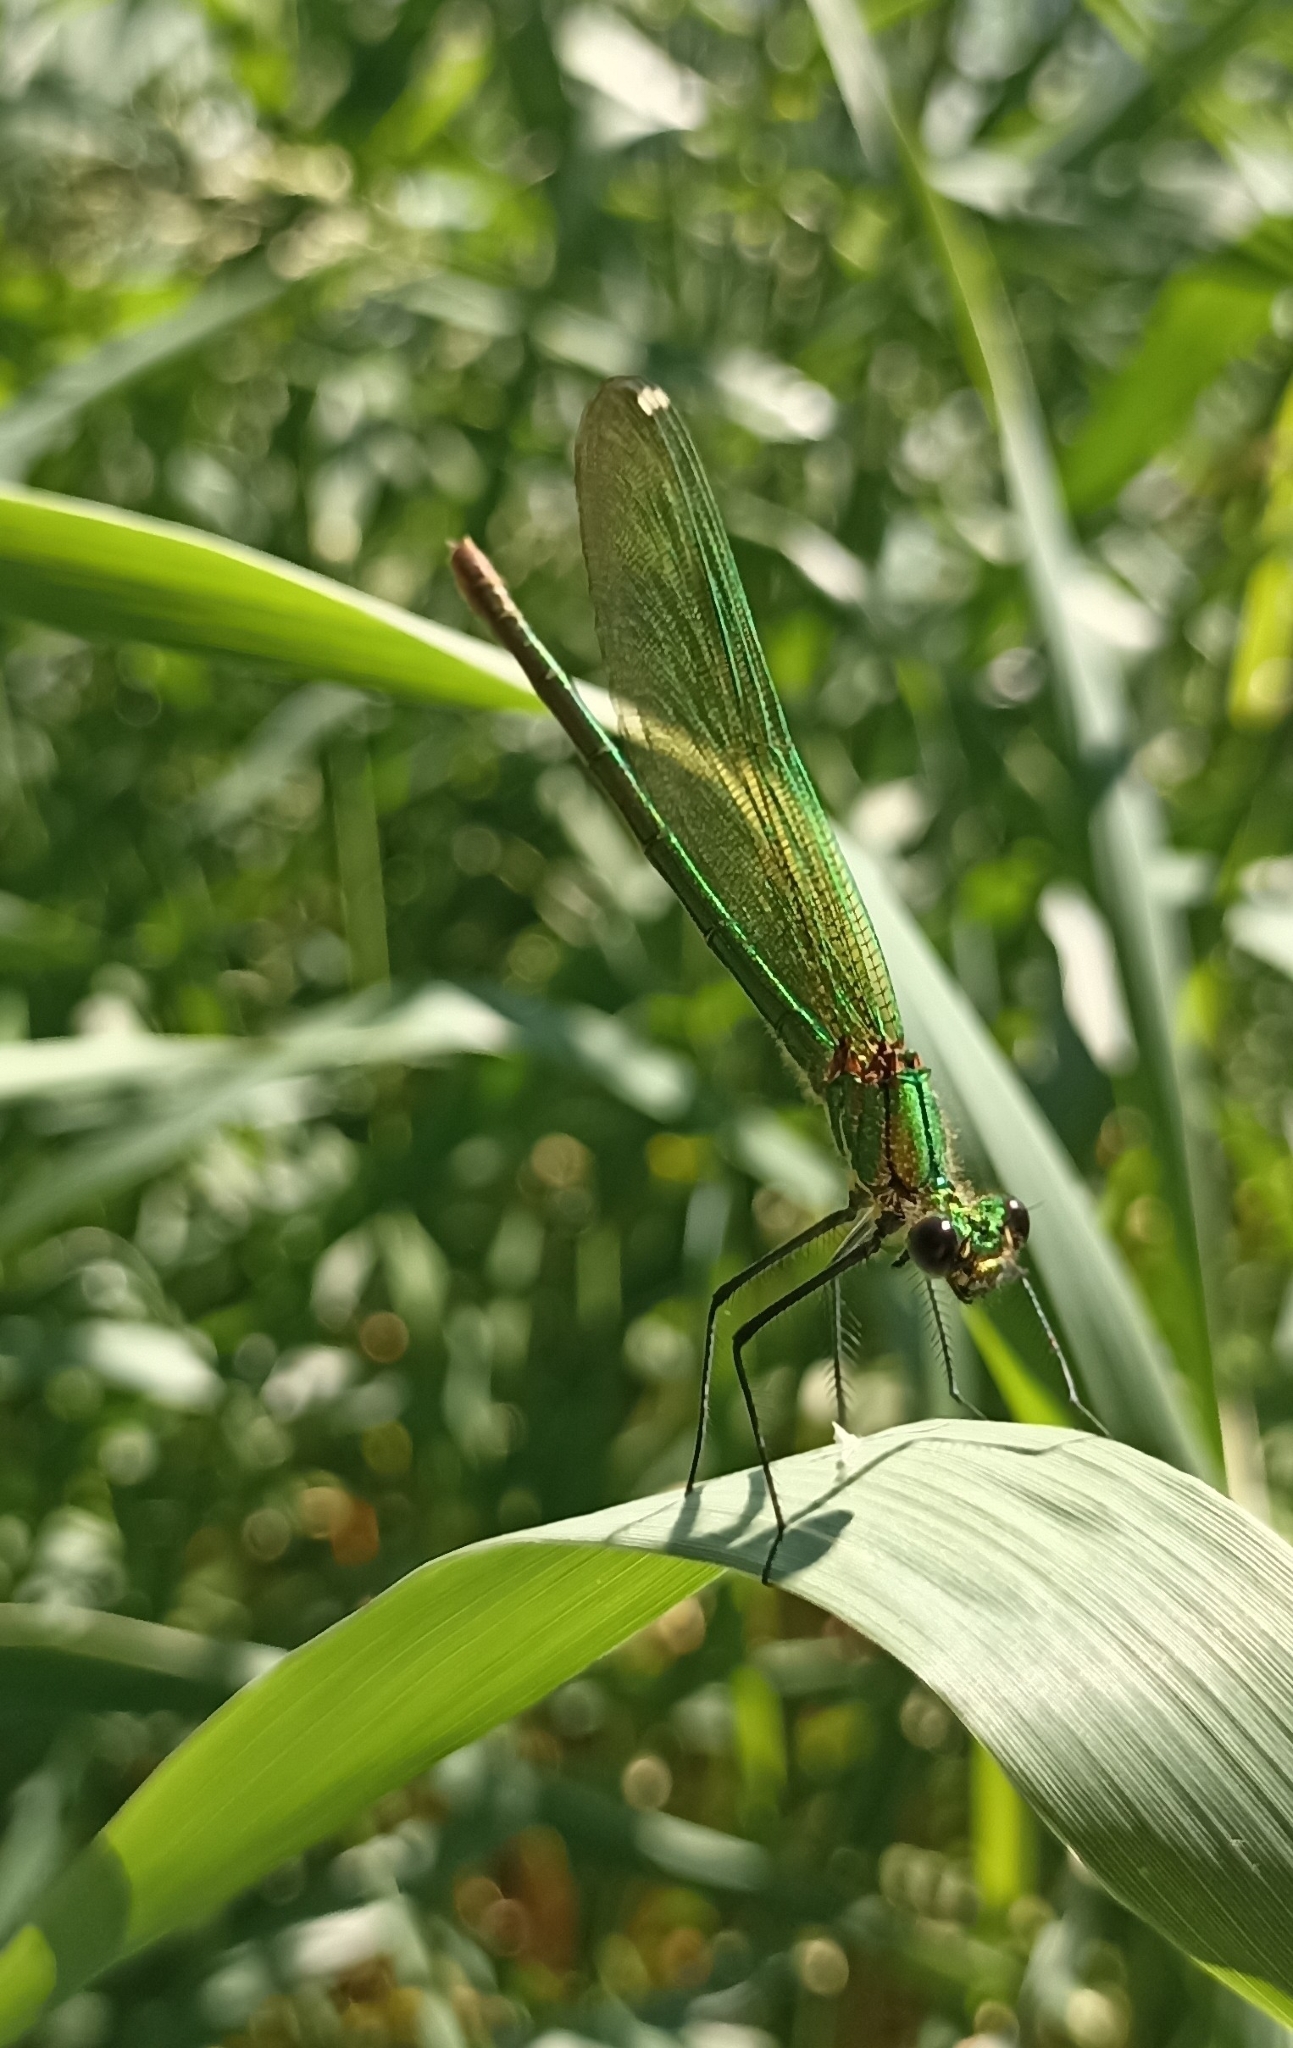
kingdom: Animalia
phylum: Arthropoda
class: Insecta
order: Odonata
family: Calopterygidae
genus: Calopteryx
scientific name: Calopteryx splendens
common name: Banded demoiselle
